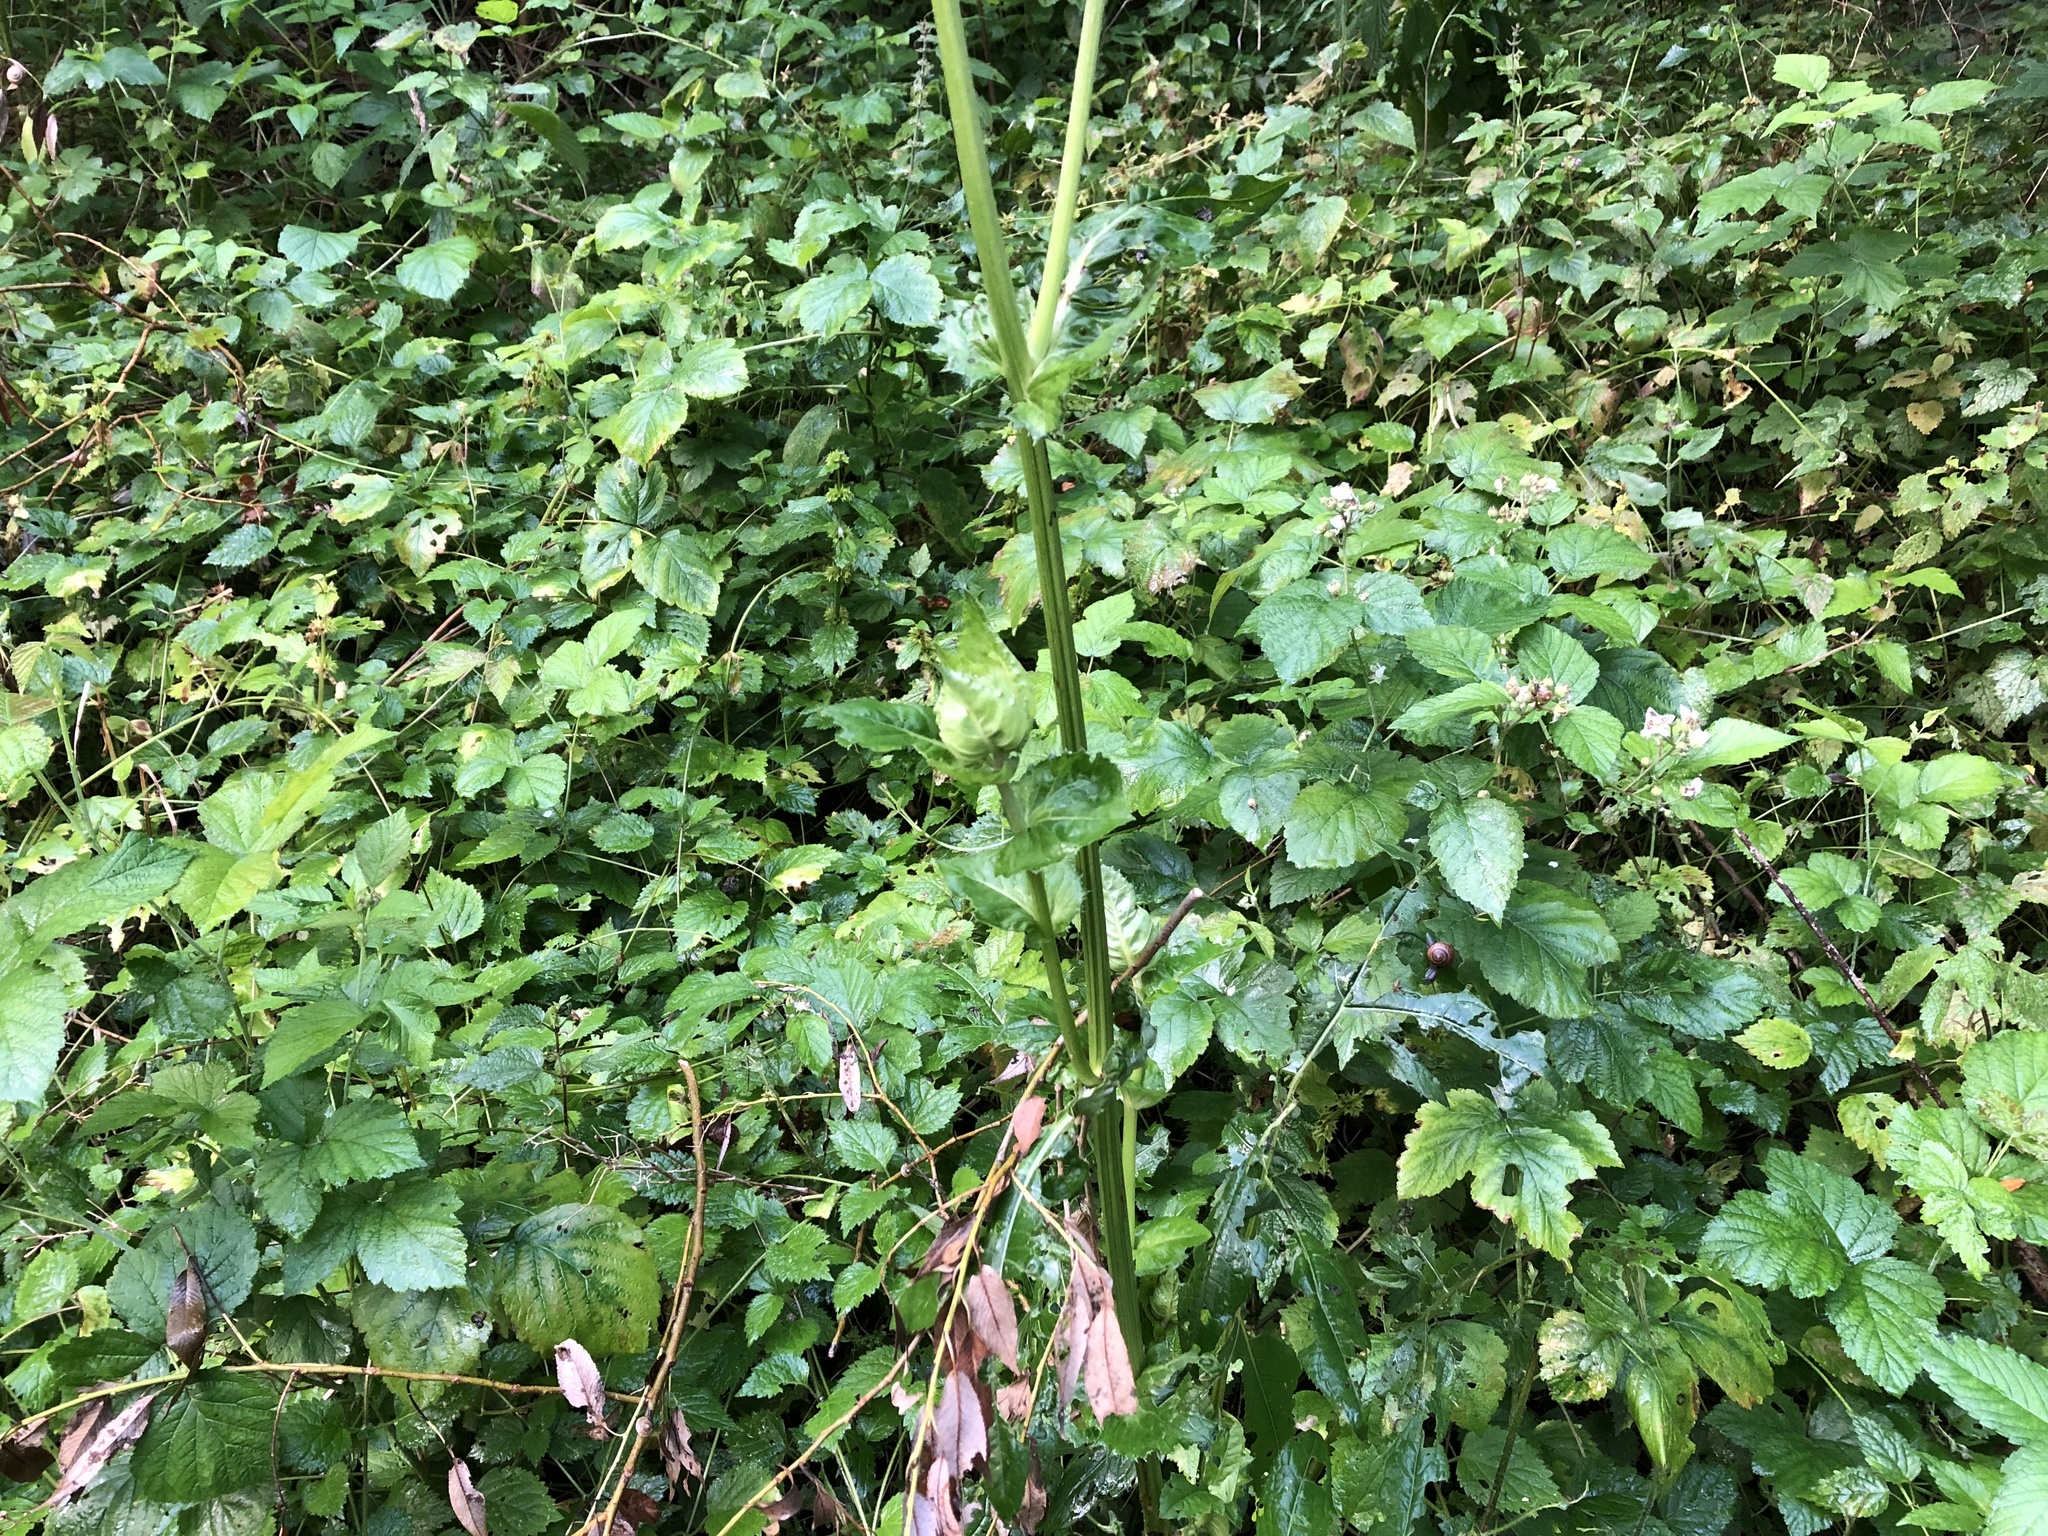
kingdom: Plantae
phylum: Tracheophyta
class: Magnoliopsida
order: Asterales
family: Asteraceae
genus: Cirsium
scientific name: Cirsium oleraceum
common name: Cabbage thistle
